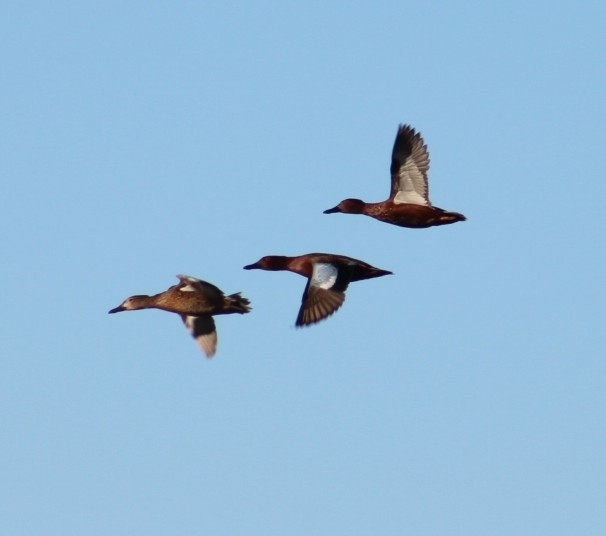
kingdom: Animalia
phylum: Chordata
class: Aves
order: Anseriformes
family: Anatidae
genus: Spatula
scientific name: Spatula cyanoptera
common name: Cinnamon teal
